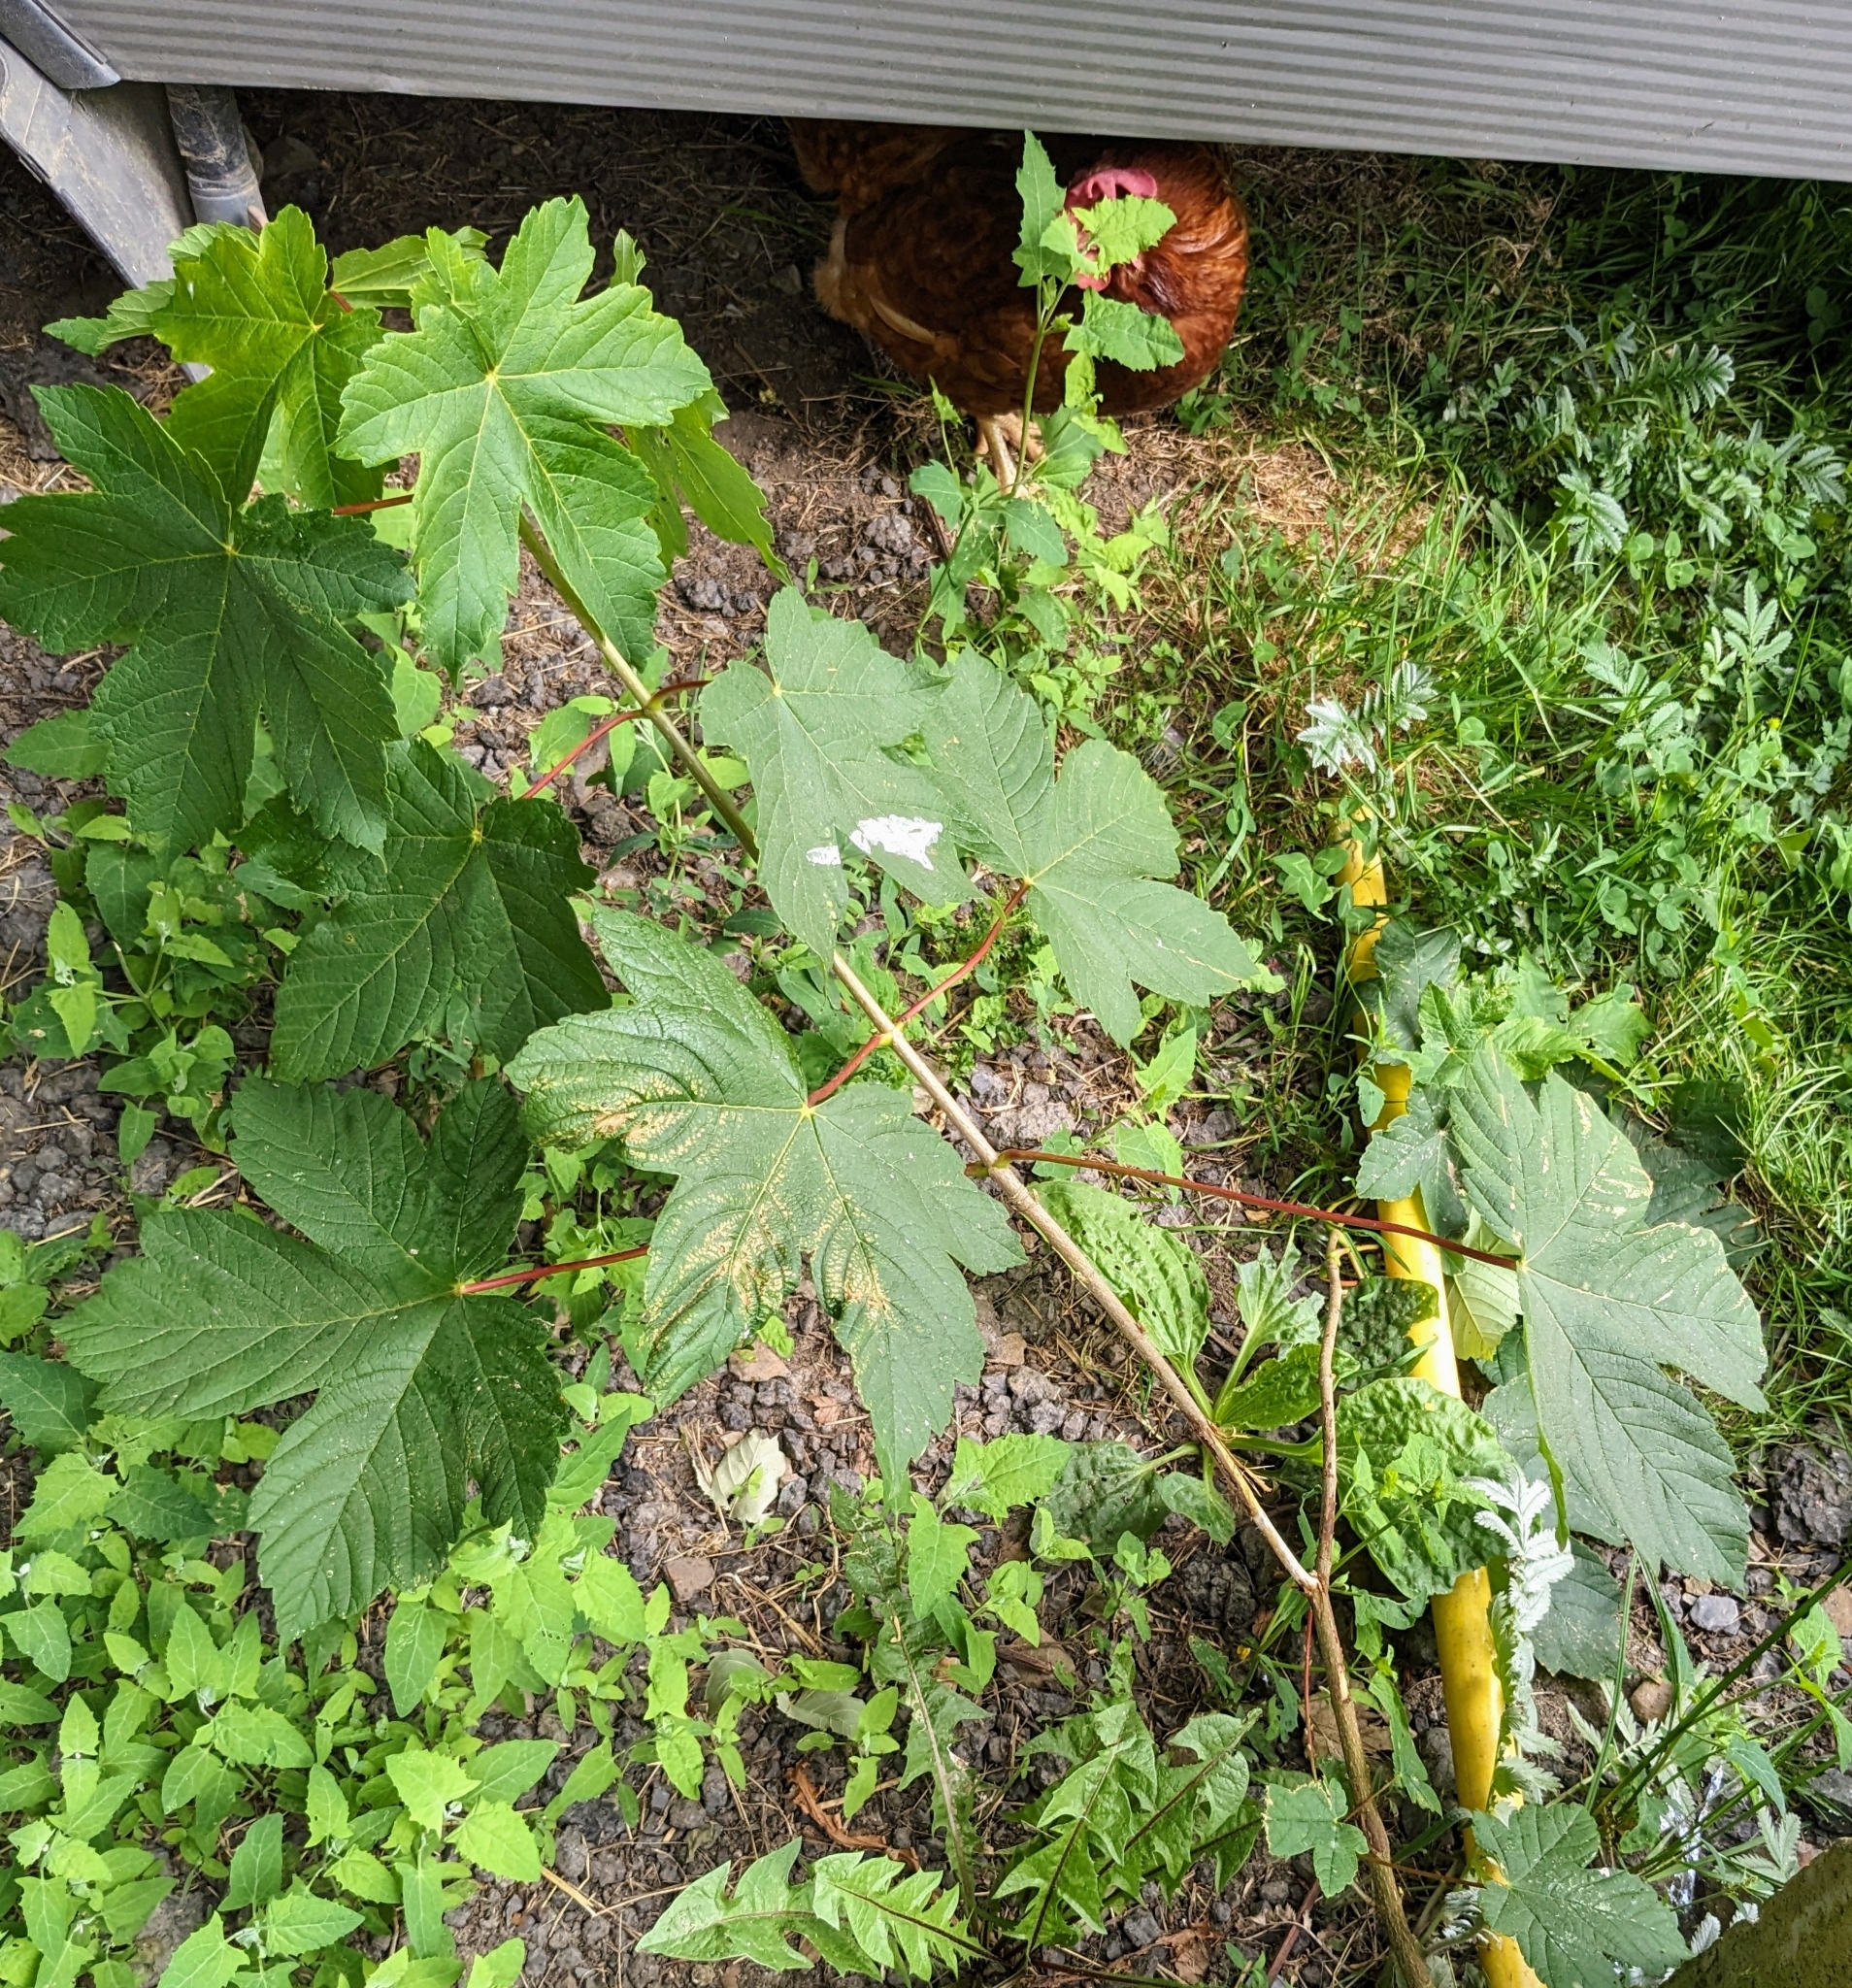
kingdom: Plantae
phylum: Tracheophyta
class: Magnoliopsida
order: Sapindales
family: Sapindaceae
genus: Acer
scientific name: Acer pseudoplatanus
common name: Sycamore
